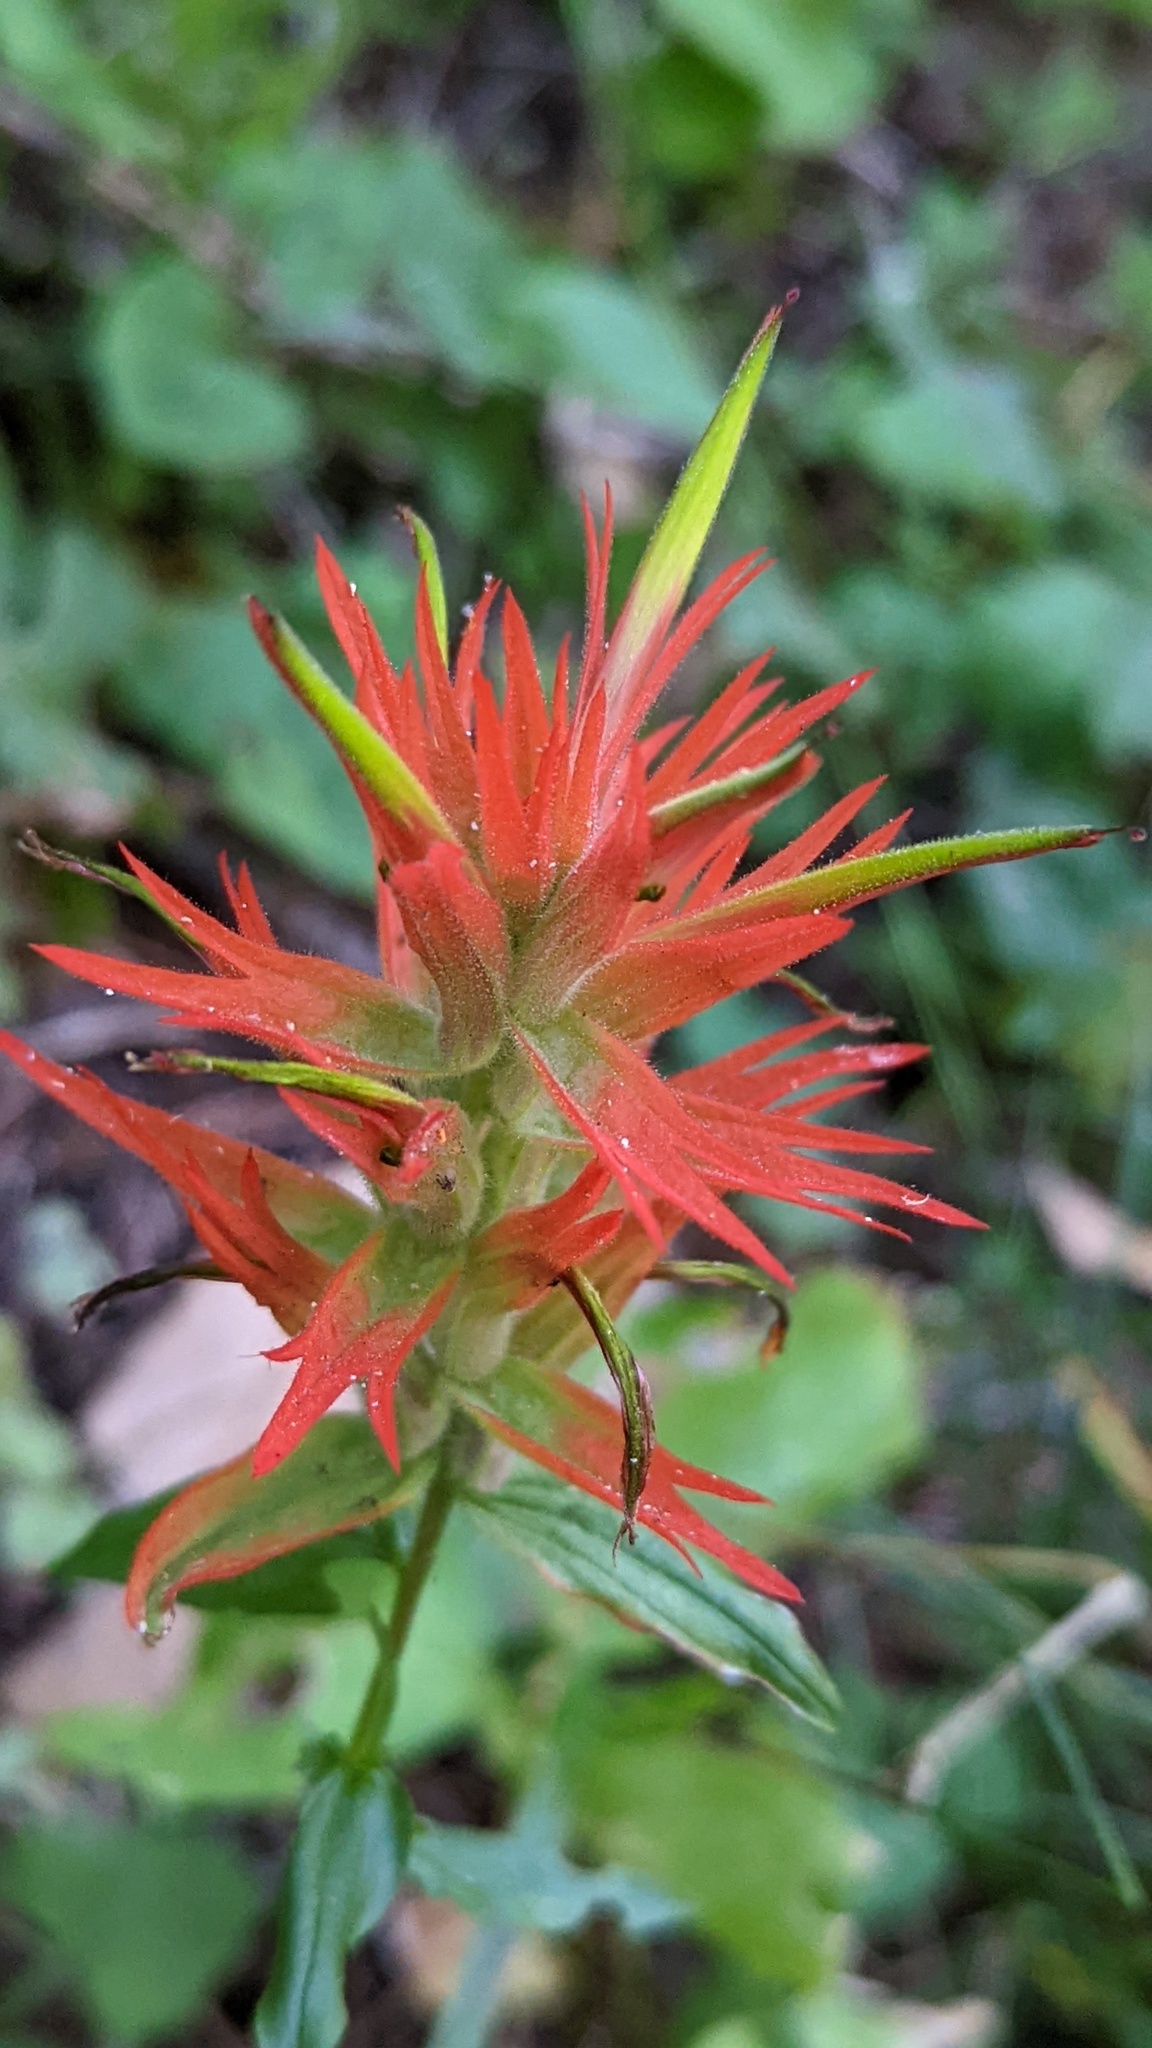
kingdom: Plantae
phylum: Tracheophyta
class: Magnoliopsida
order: Lamiales
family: Orobanchaceae
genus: Castilleja
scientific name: Castilleja miniata
